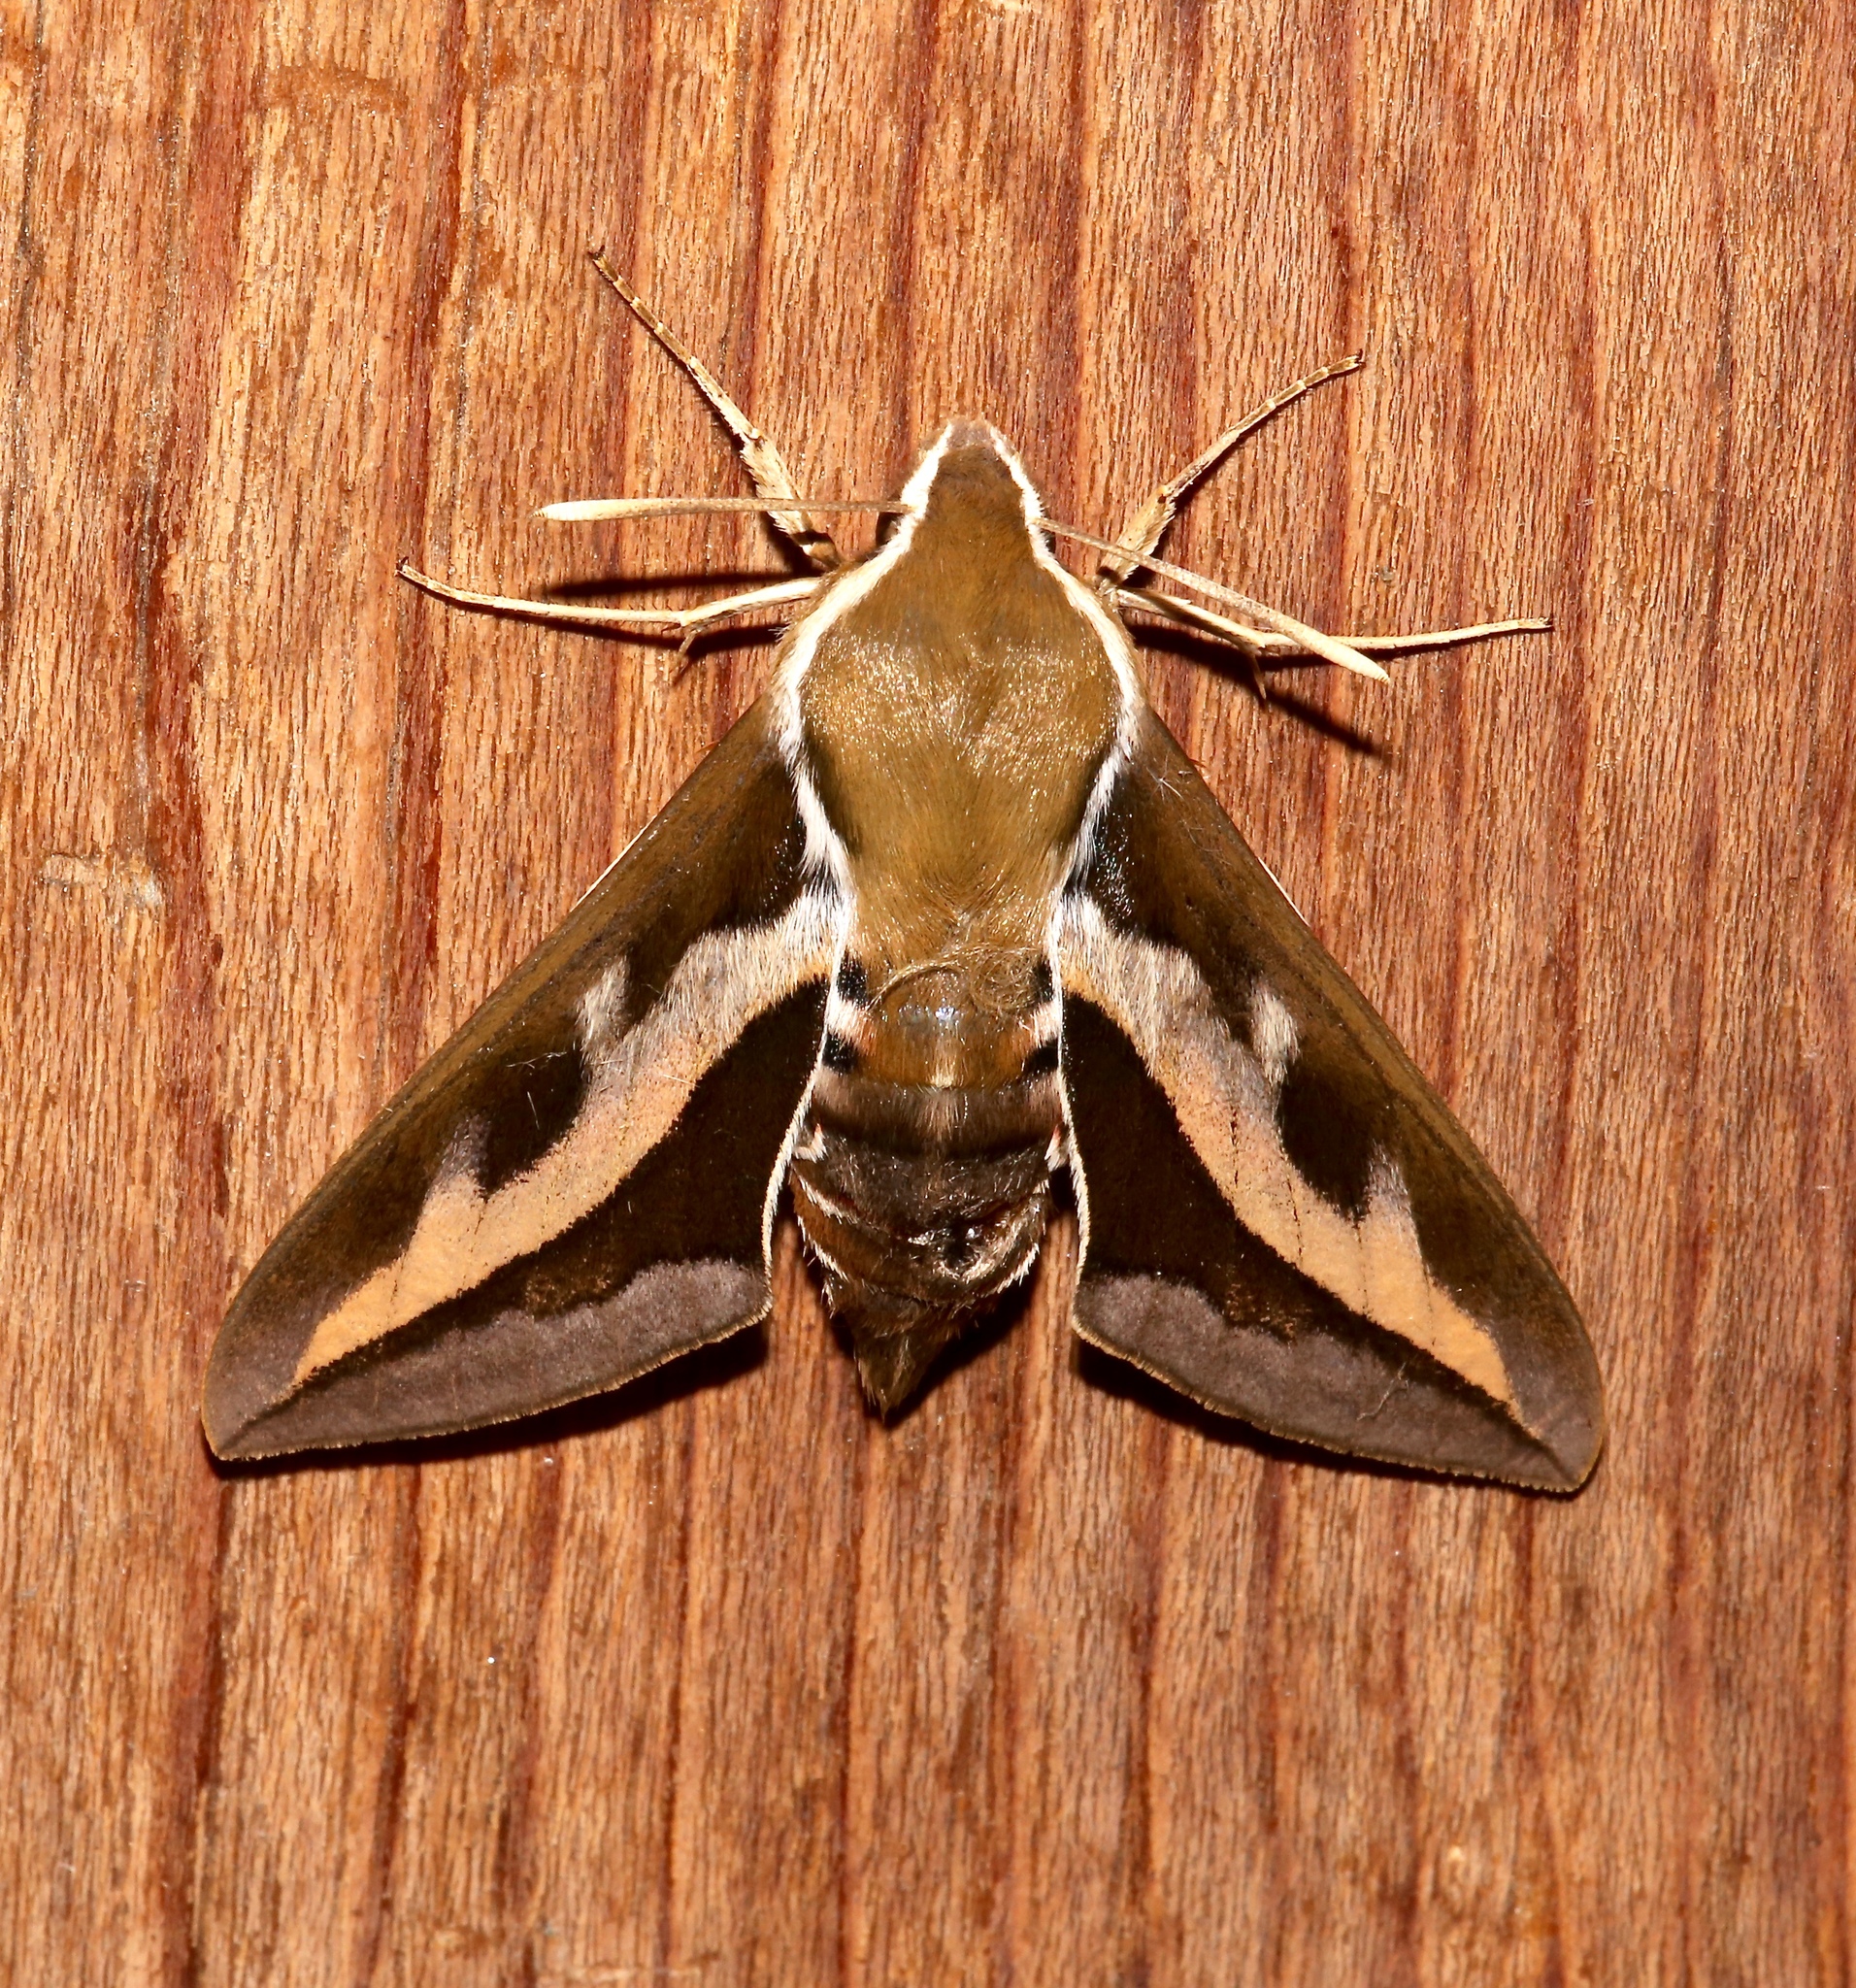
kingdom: Animalia
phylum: Arthropoda
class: Insecta
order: Lepidoptera
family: Sphingidae
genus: Hyles
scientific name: Hyles gallii
